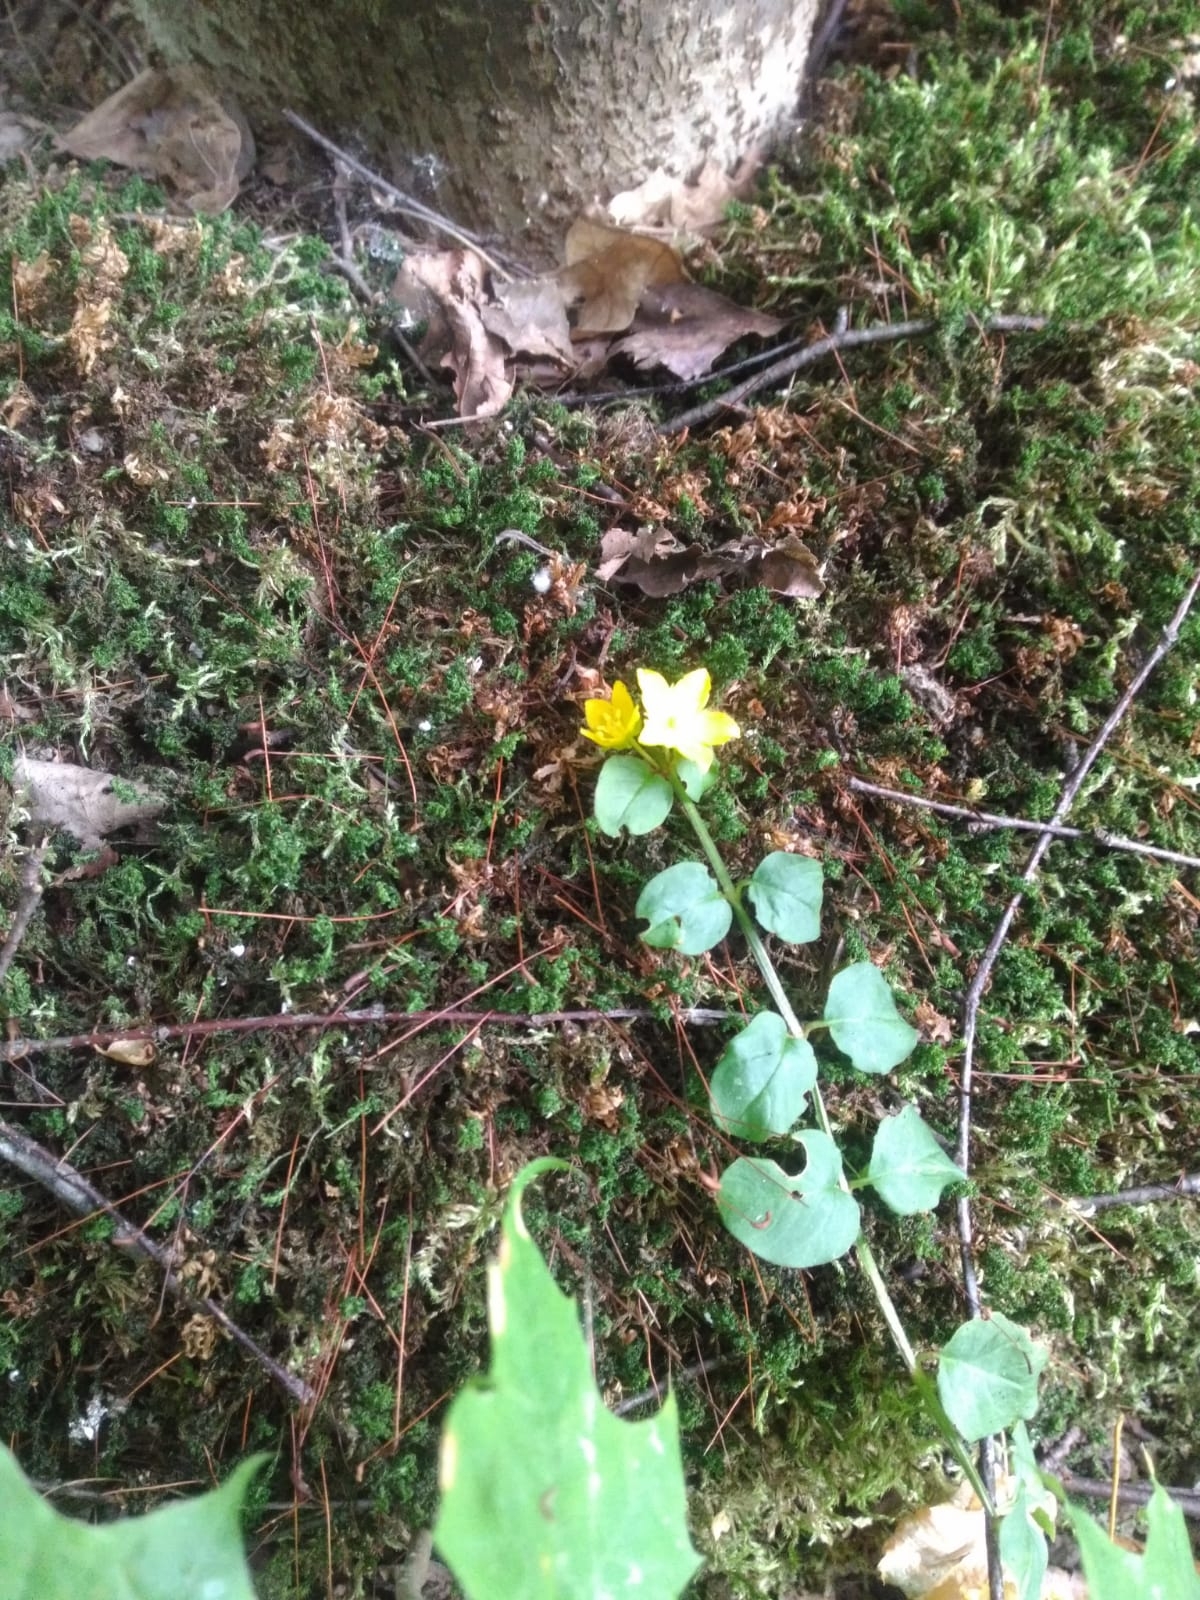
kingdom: Plantae
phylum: Tracheophyta
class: Magnoliopsida
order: Ericales
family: Primulaceae
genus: Lysimachia
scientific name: Lysimachia nummularia
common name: Moneywort
